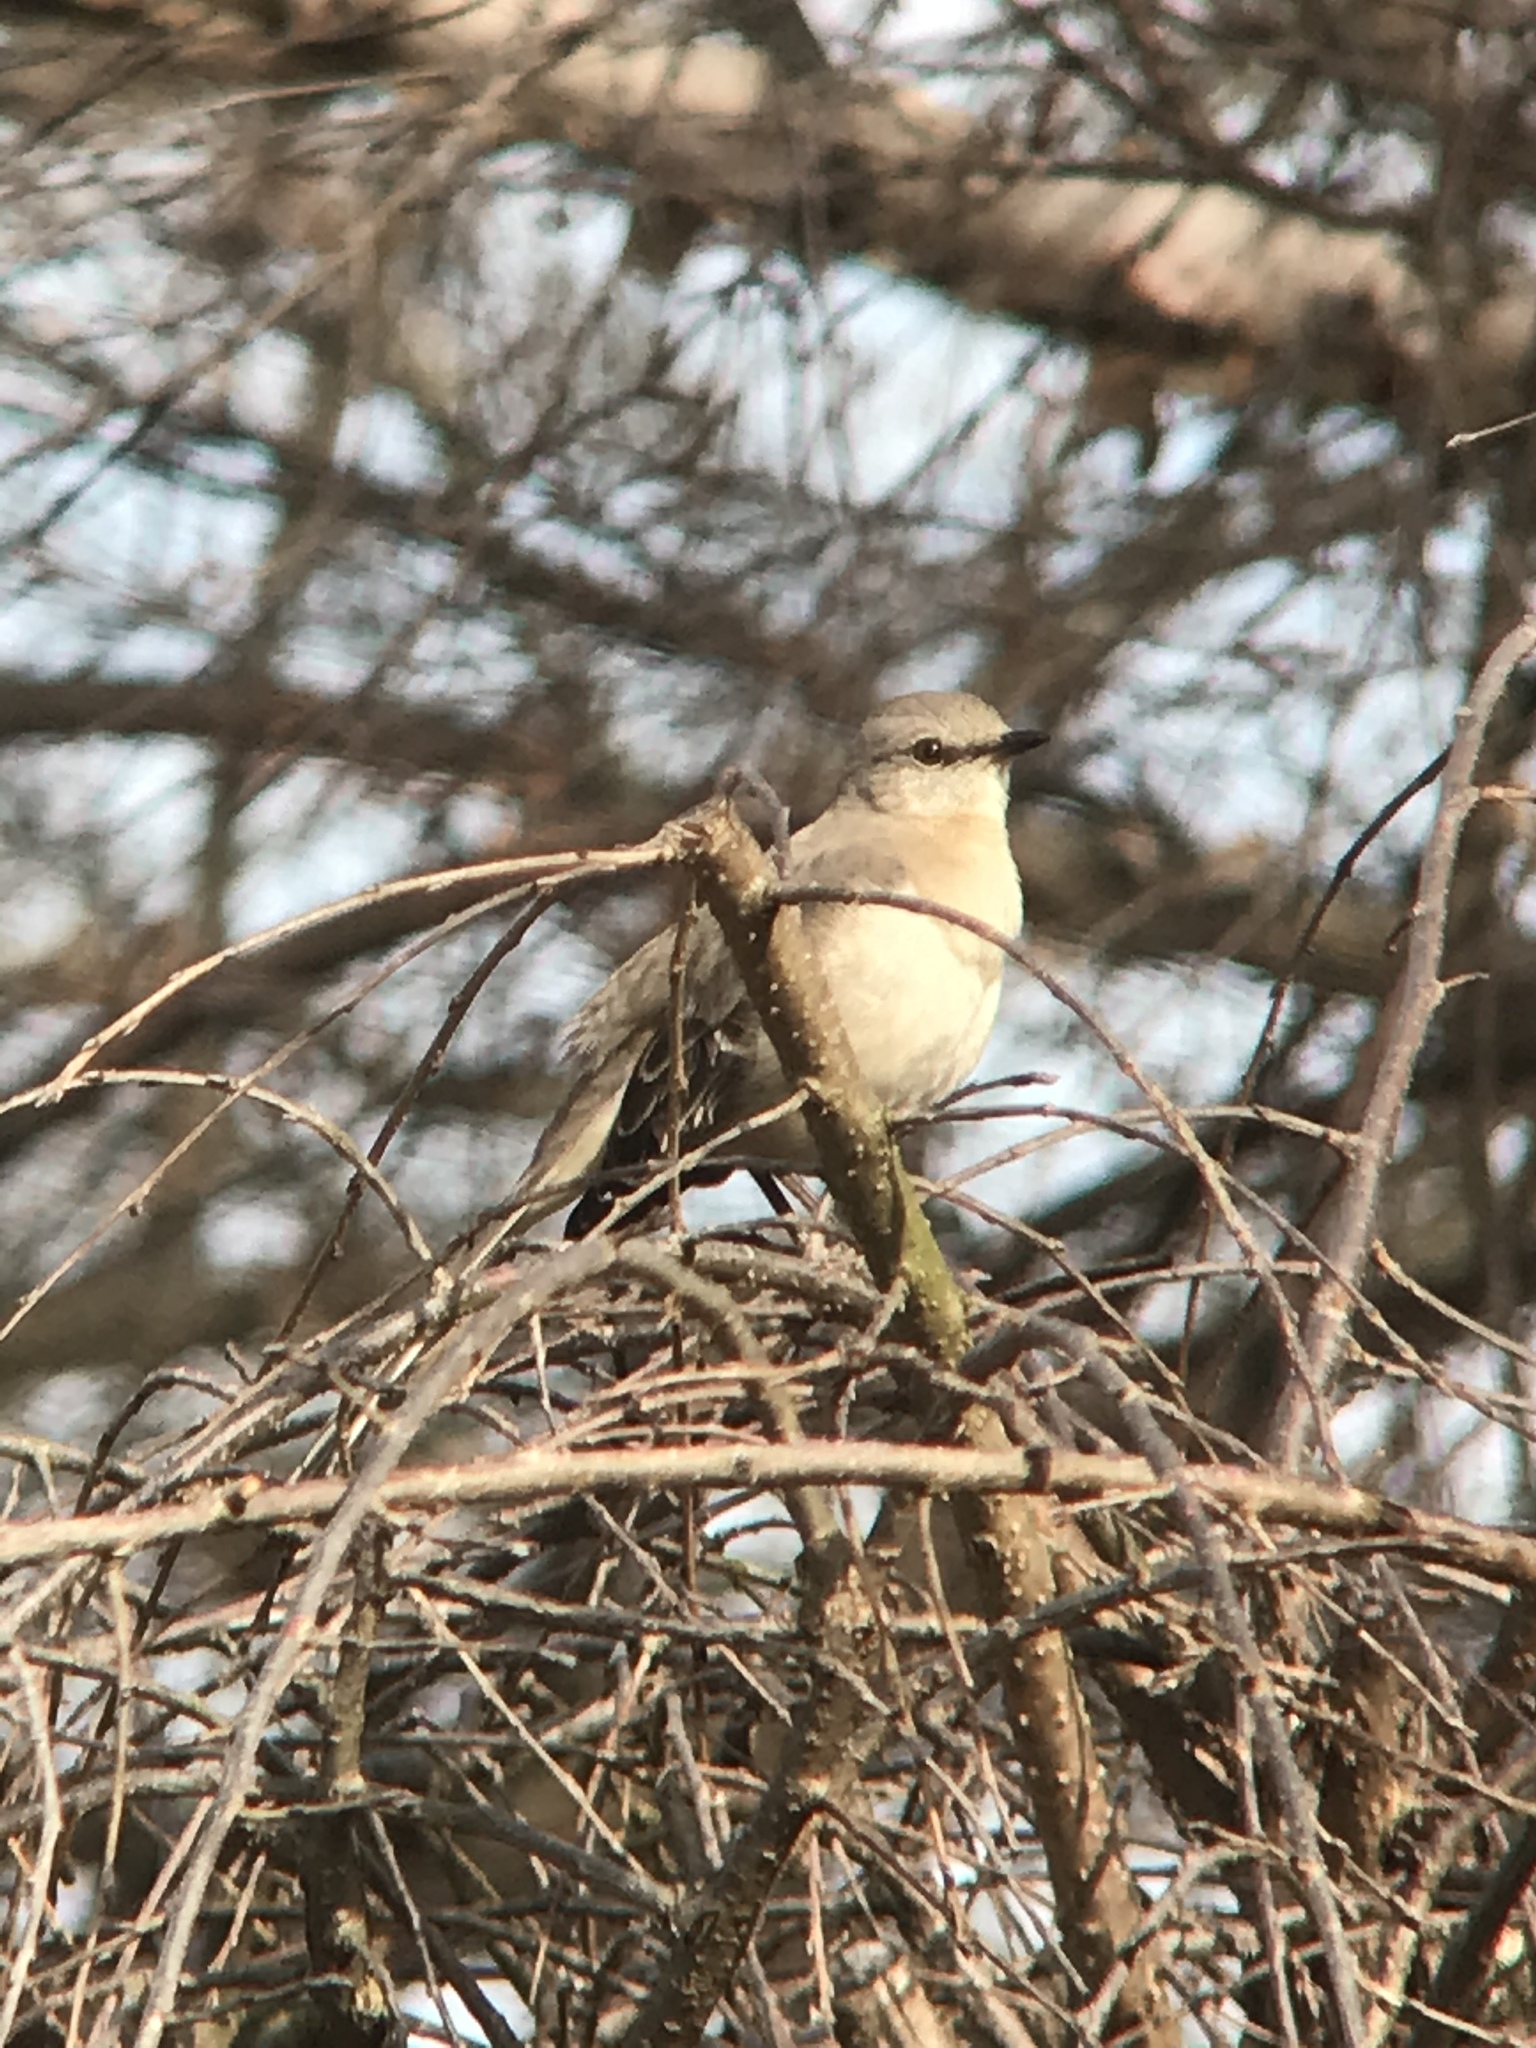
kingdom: Animalia
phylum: Chordata
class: Aves
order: Passeriformes
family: Mimidae
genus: Mimus
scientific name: Mimus polyglottos
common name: Northern mockingbird
